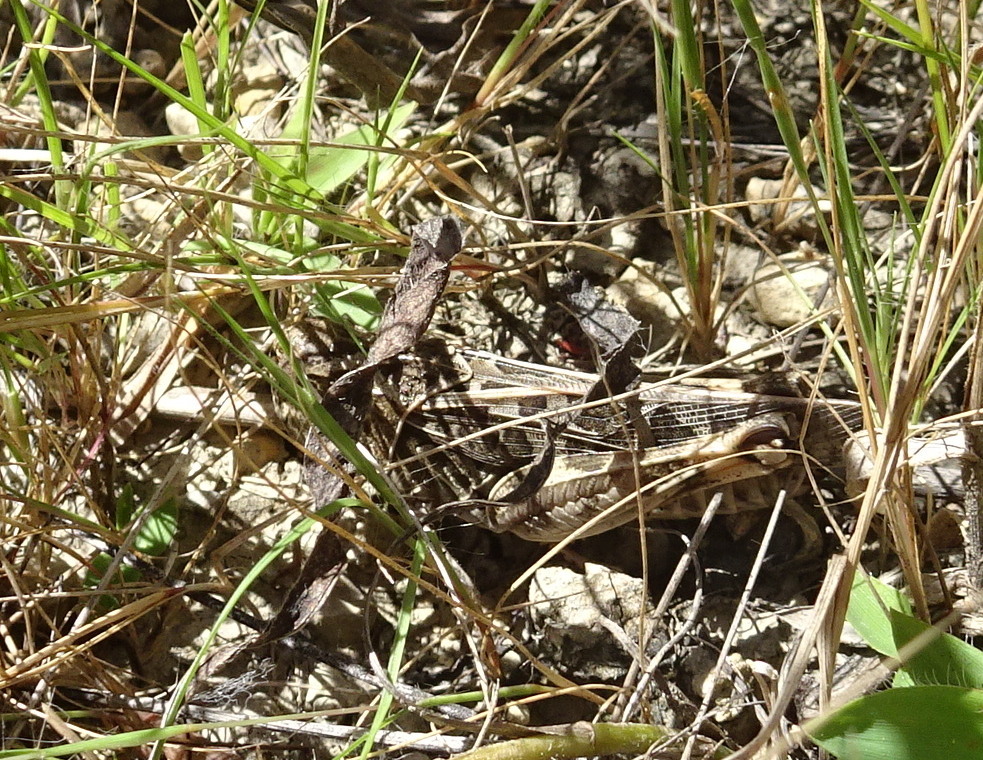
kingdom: Animalia
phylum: Arthropoda
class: Insecta
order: Orthoptera
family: Acrididae
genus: Hippiscus
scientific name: Hippiscus ocelote
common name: Wrinkled grasshopper
